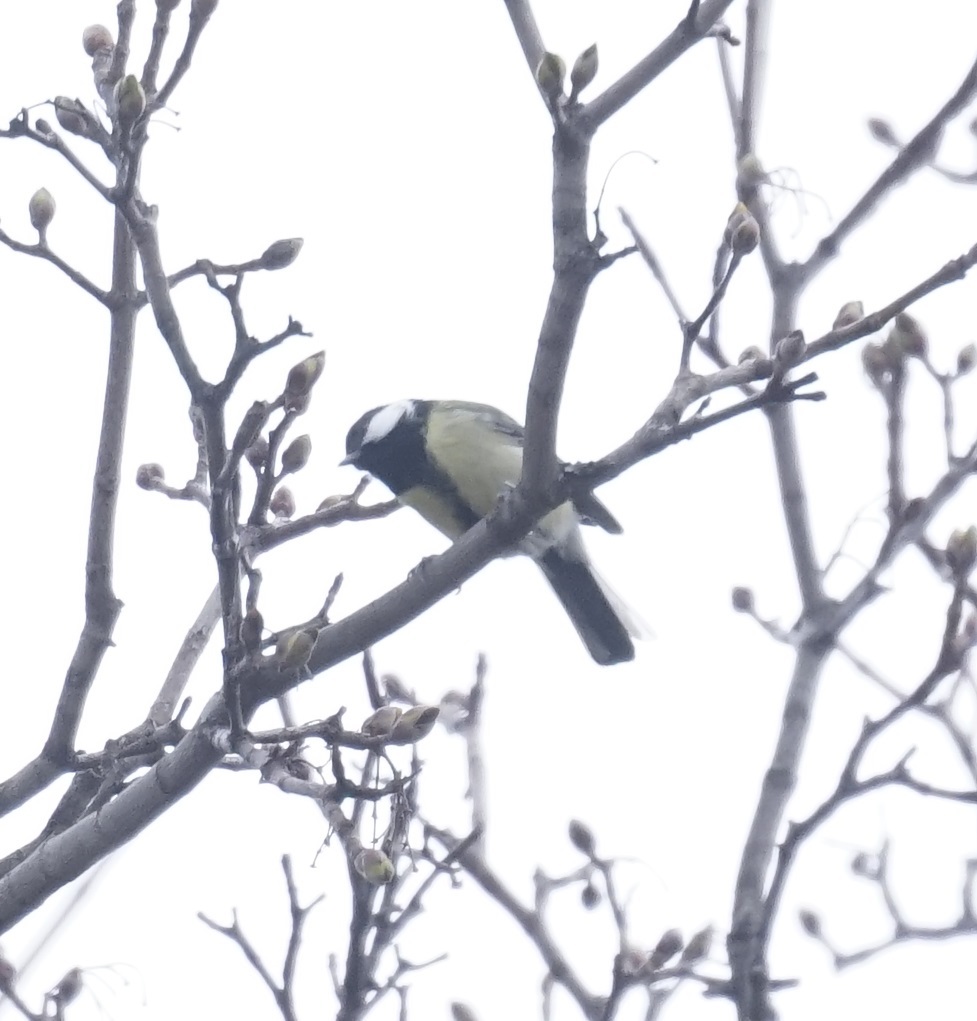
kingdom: Animalia
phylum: Chordata
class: Aves
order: Passeriformes
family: Paridae
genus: Parus
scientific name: Parus major
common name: Great tit
